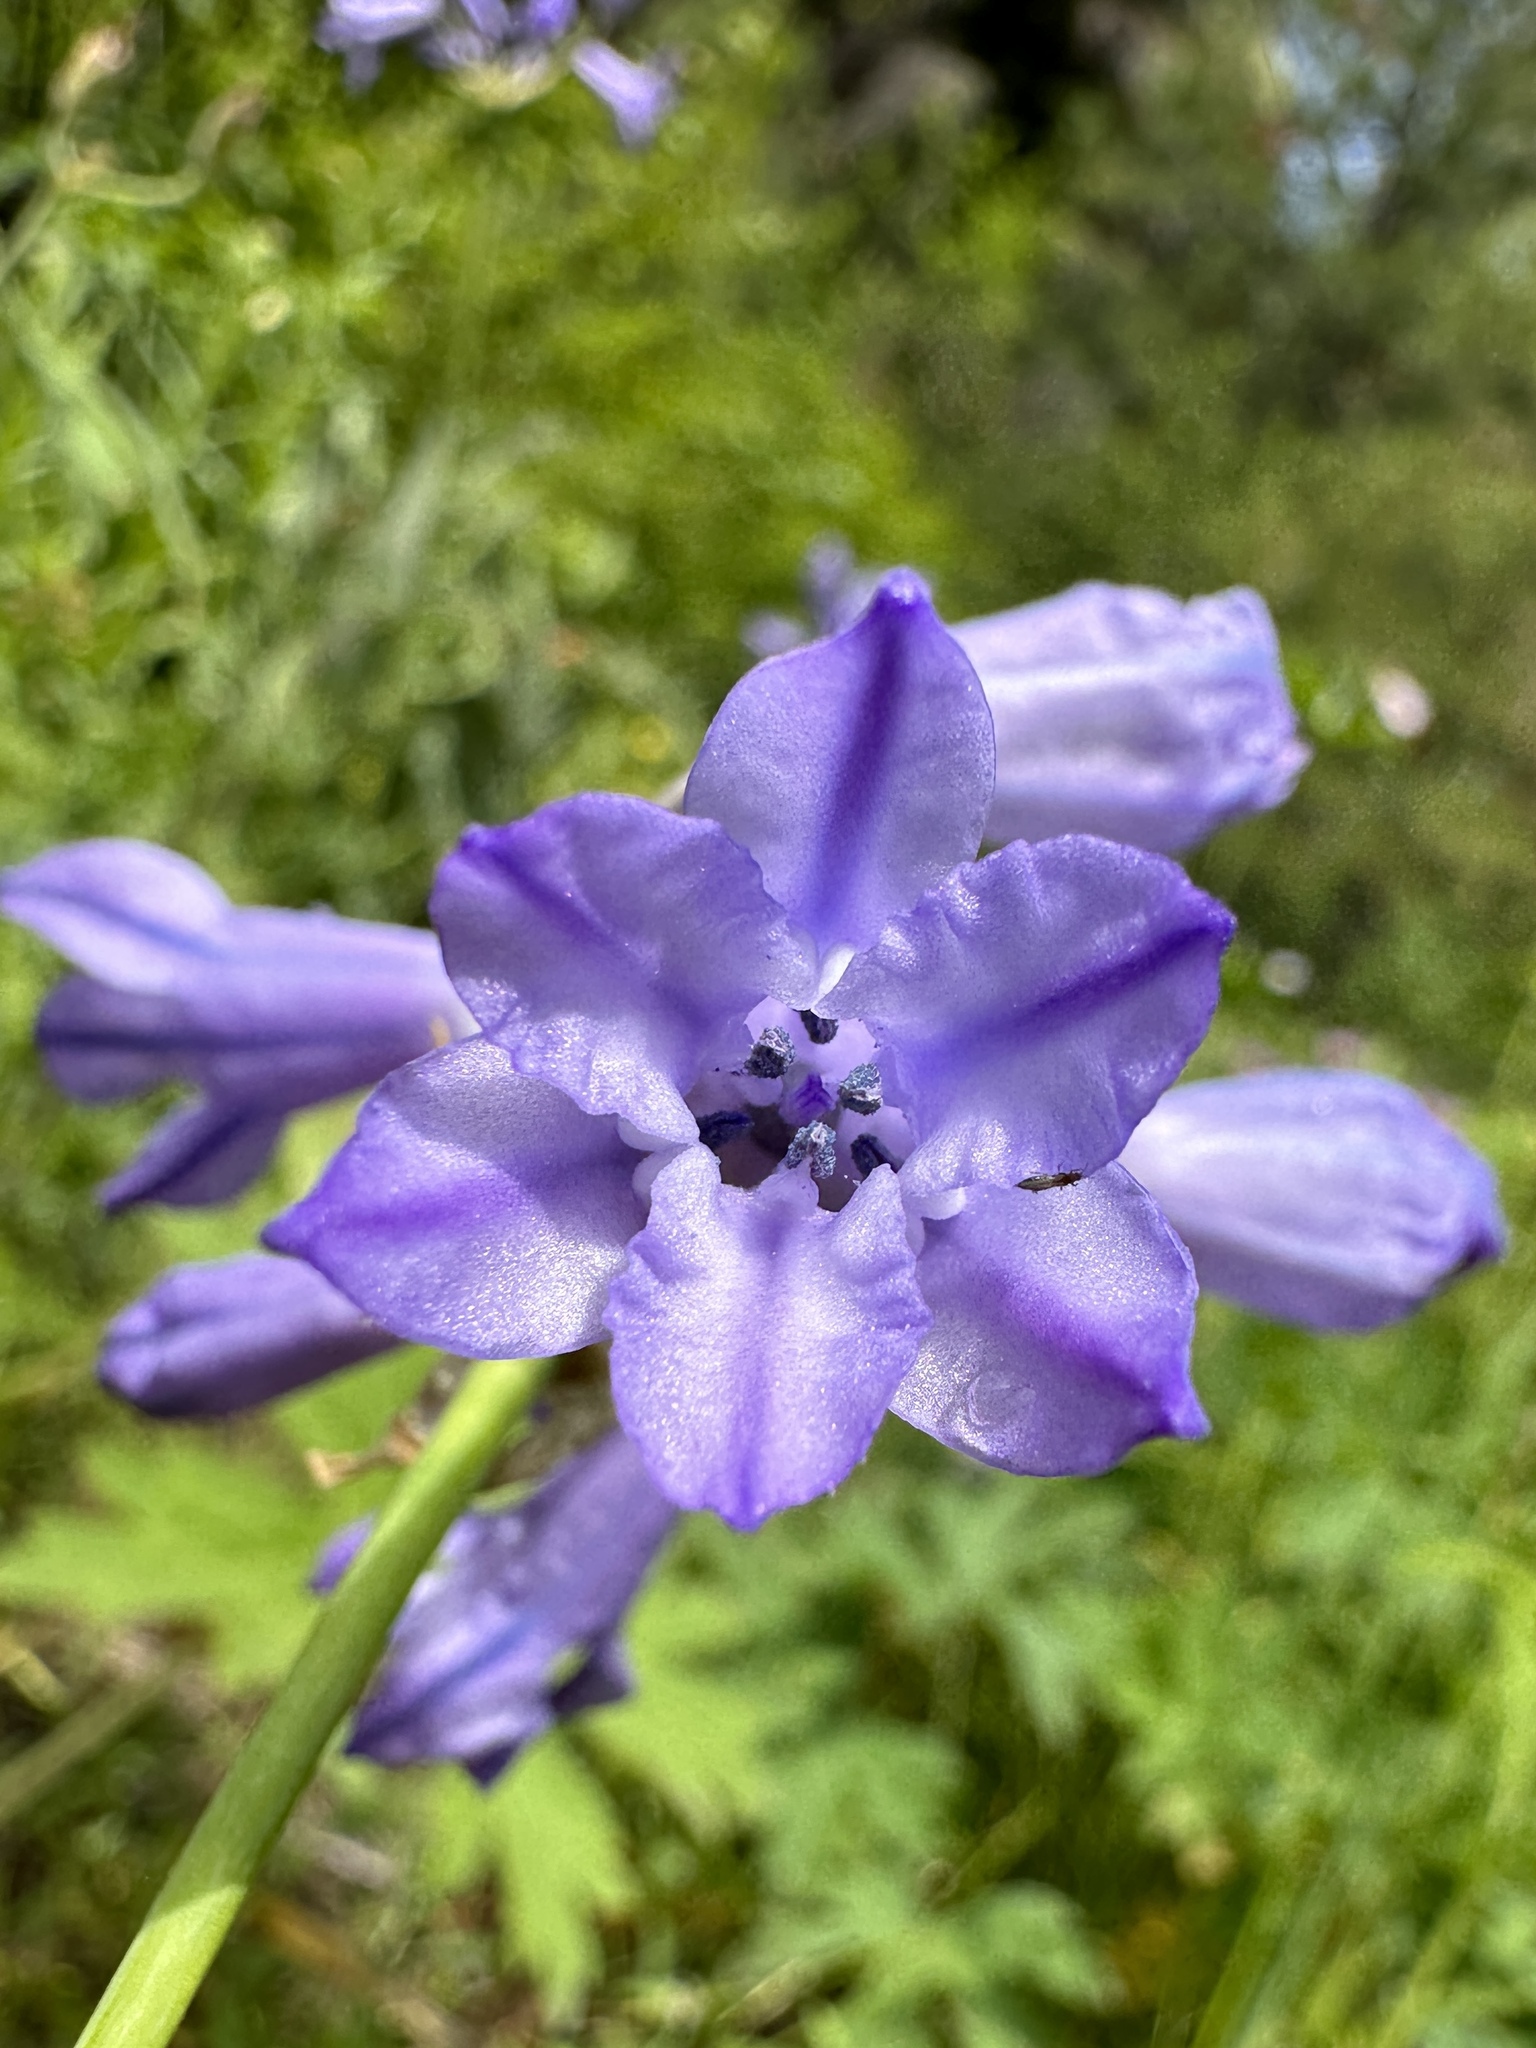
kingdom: Plantae
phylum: Tracheophyta
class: Liliopsida
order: Asparagales
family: Asparagaceae
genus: Triteleia
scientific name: Triteleia grandiflora
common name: Wild hyacinth
